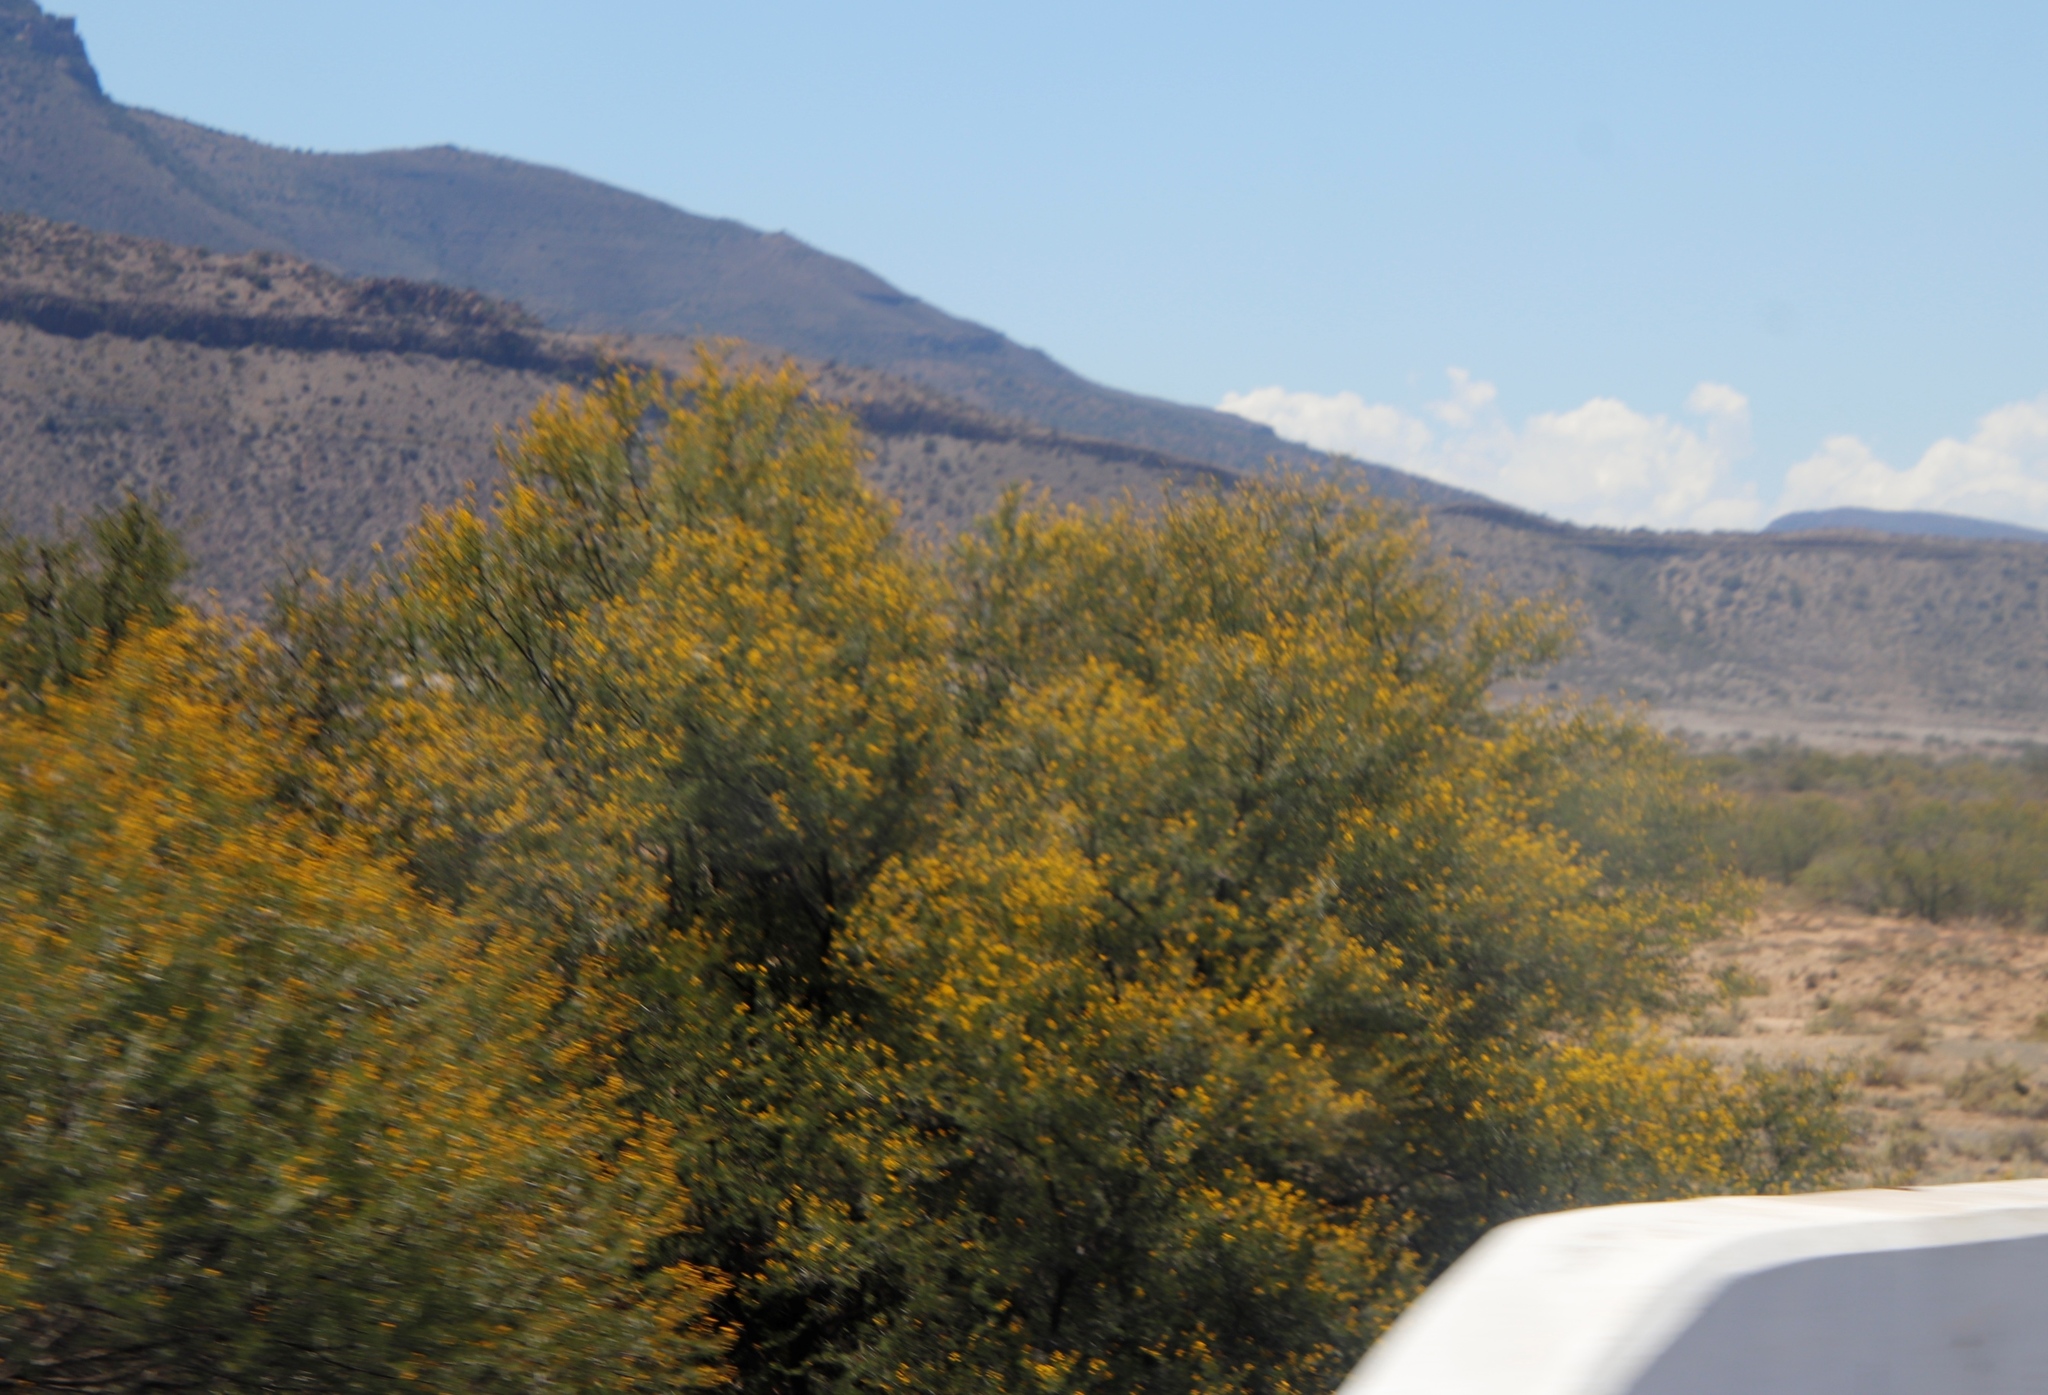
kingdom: Plantae
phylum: Tracheophyta
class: Magnoliopsida
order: Fabales
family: Fabaceae
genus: Vachellia
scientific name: Vachellia karroo
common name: Sweet thorn
